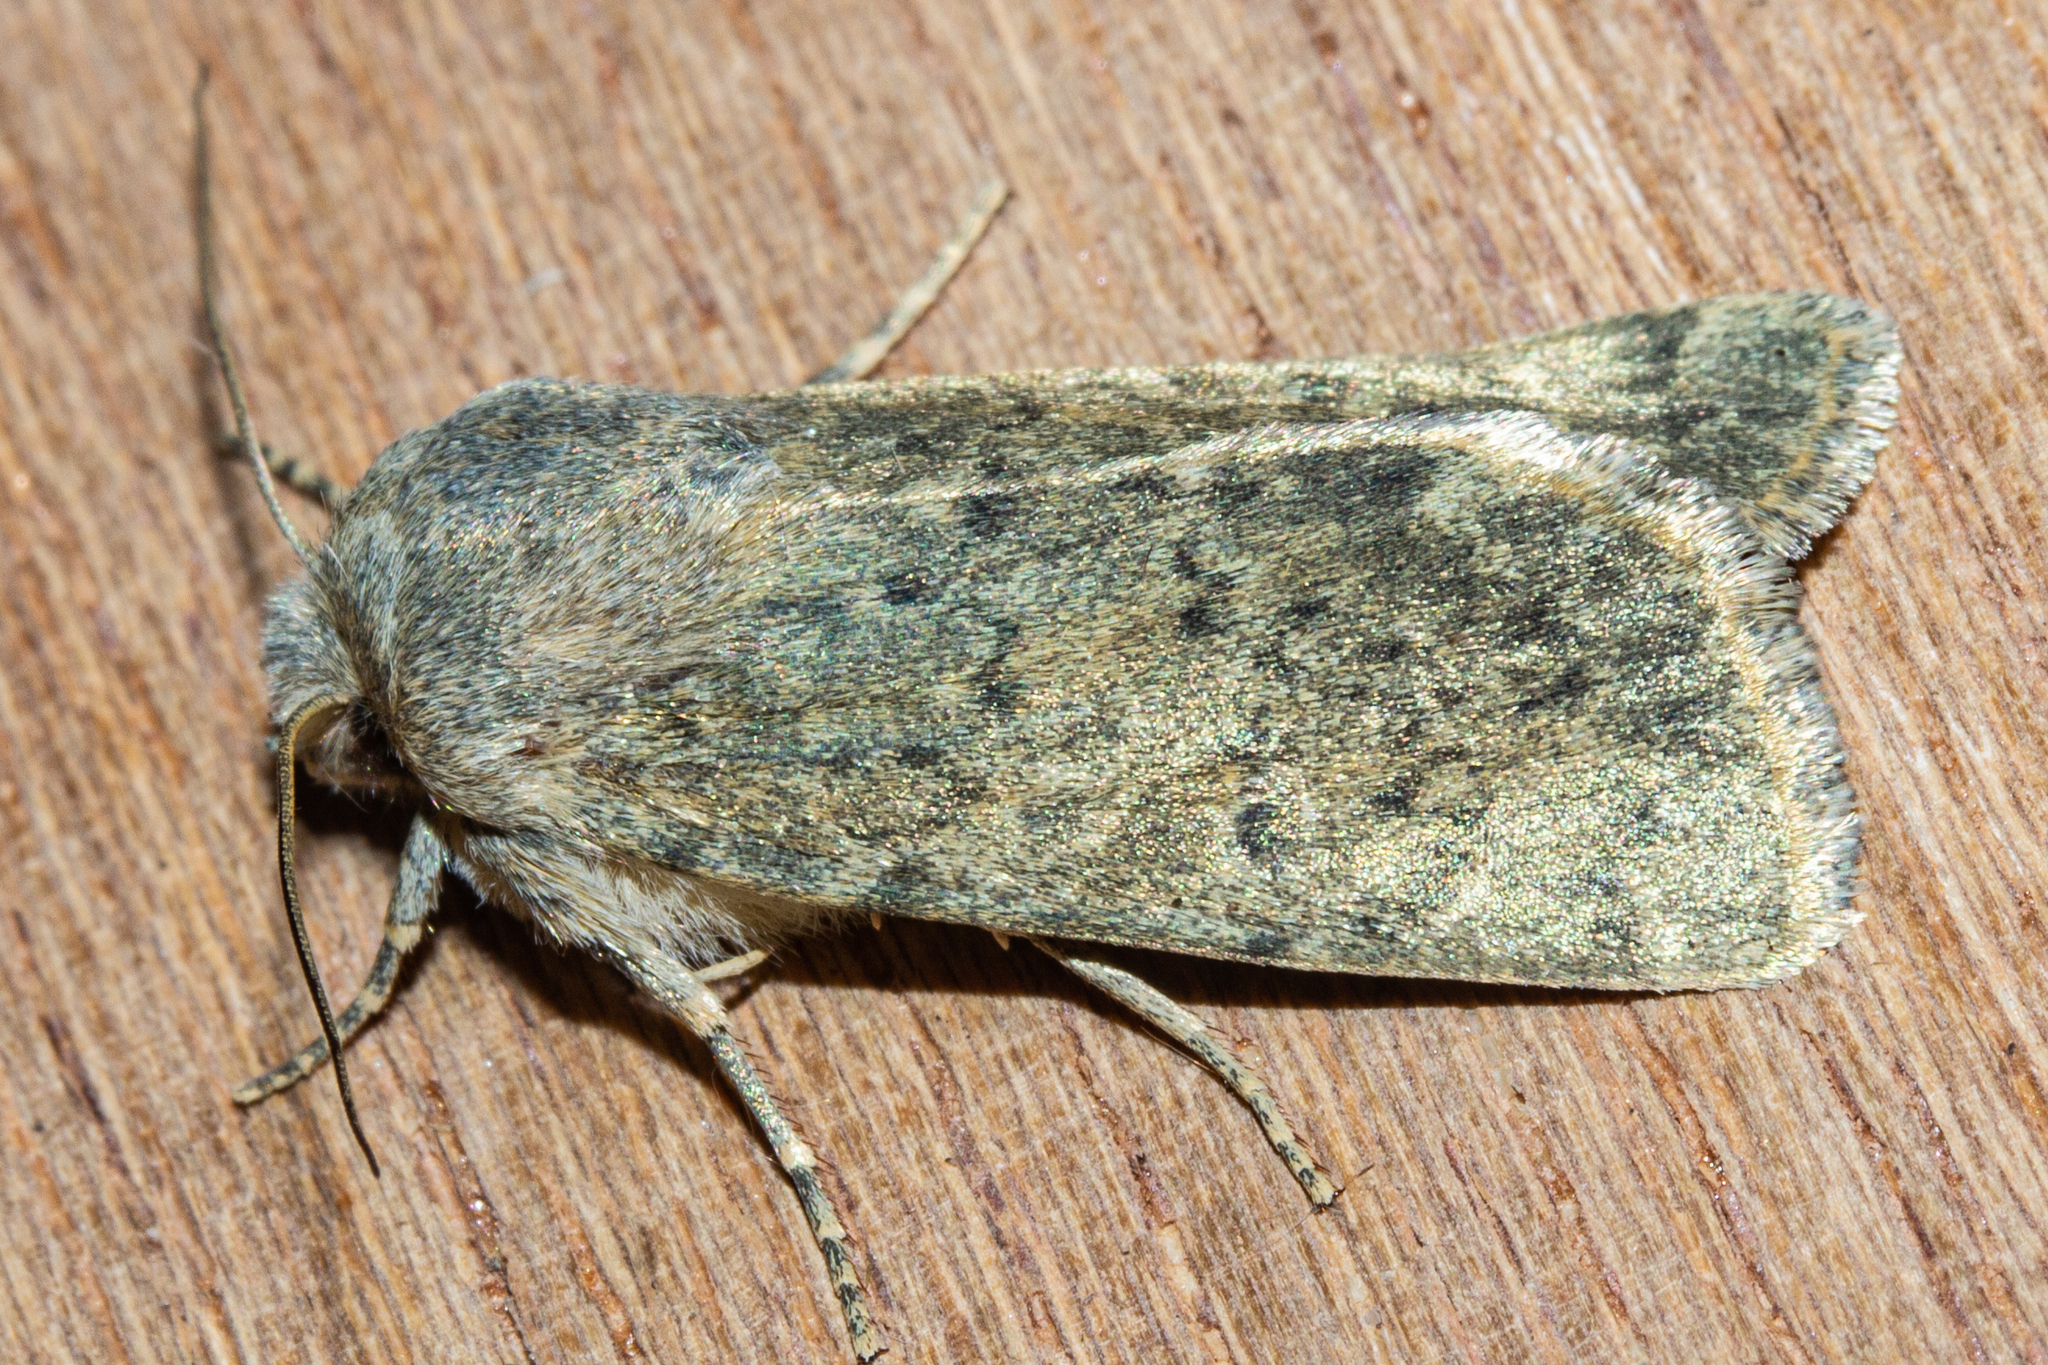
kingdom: Animalia
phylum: Arthropoda
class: Insecta
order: Lepidoptera
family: Noctuidae
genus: Physetica
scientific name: Physetica caerulea
